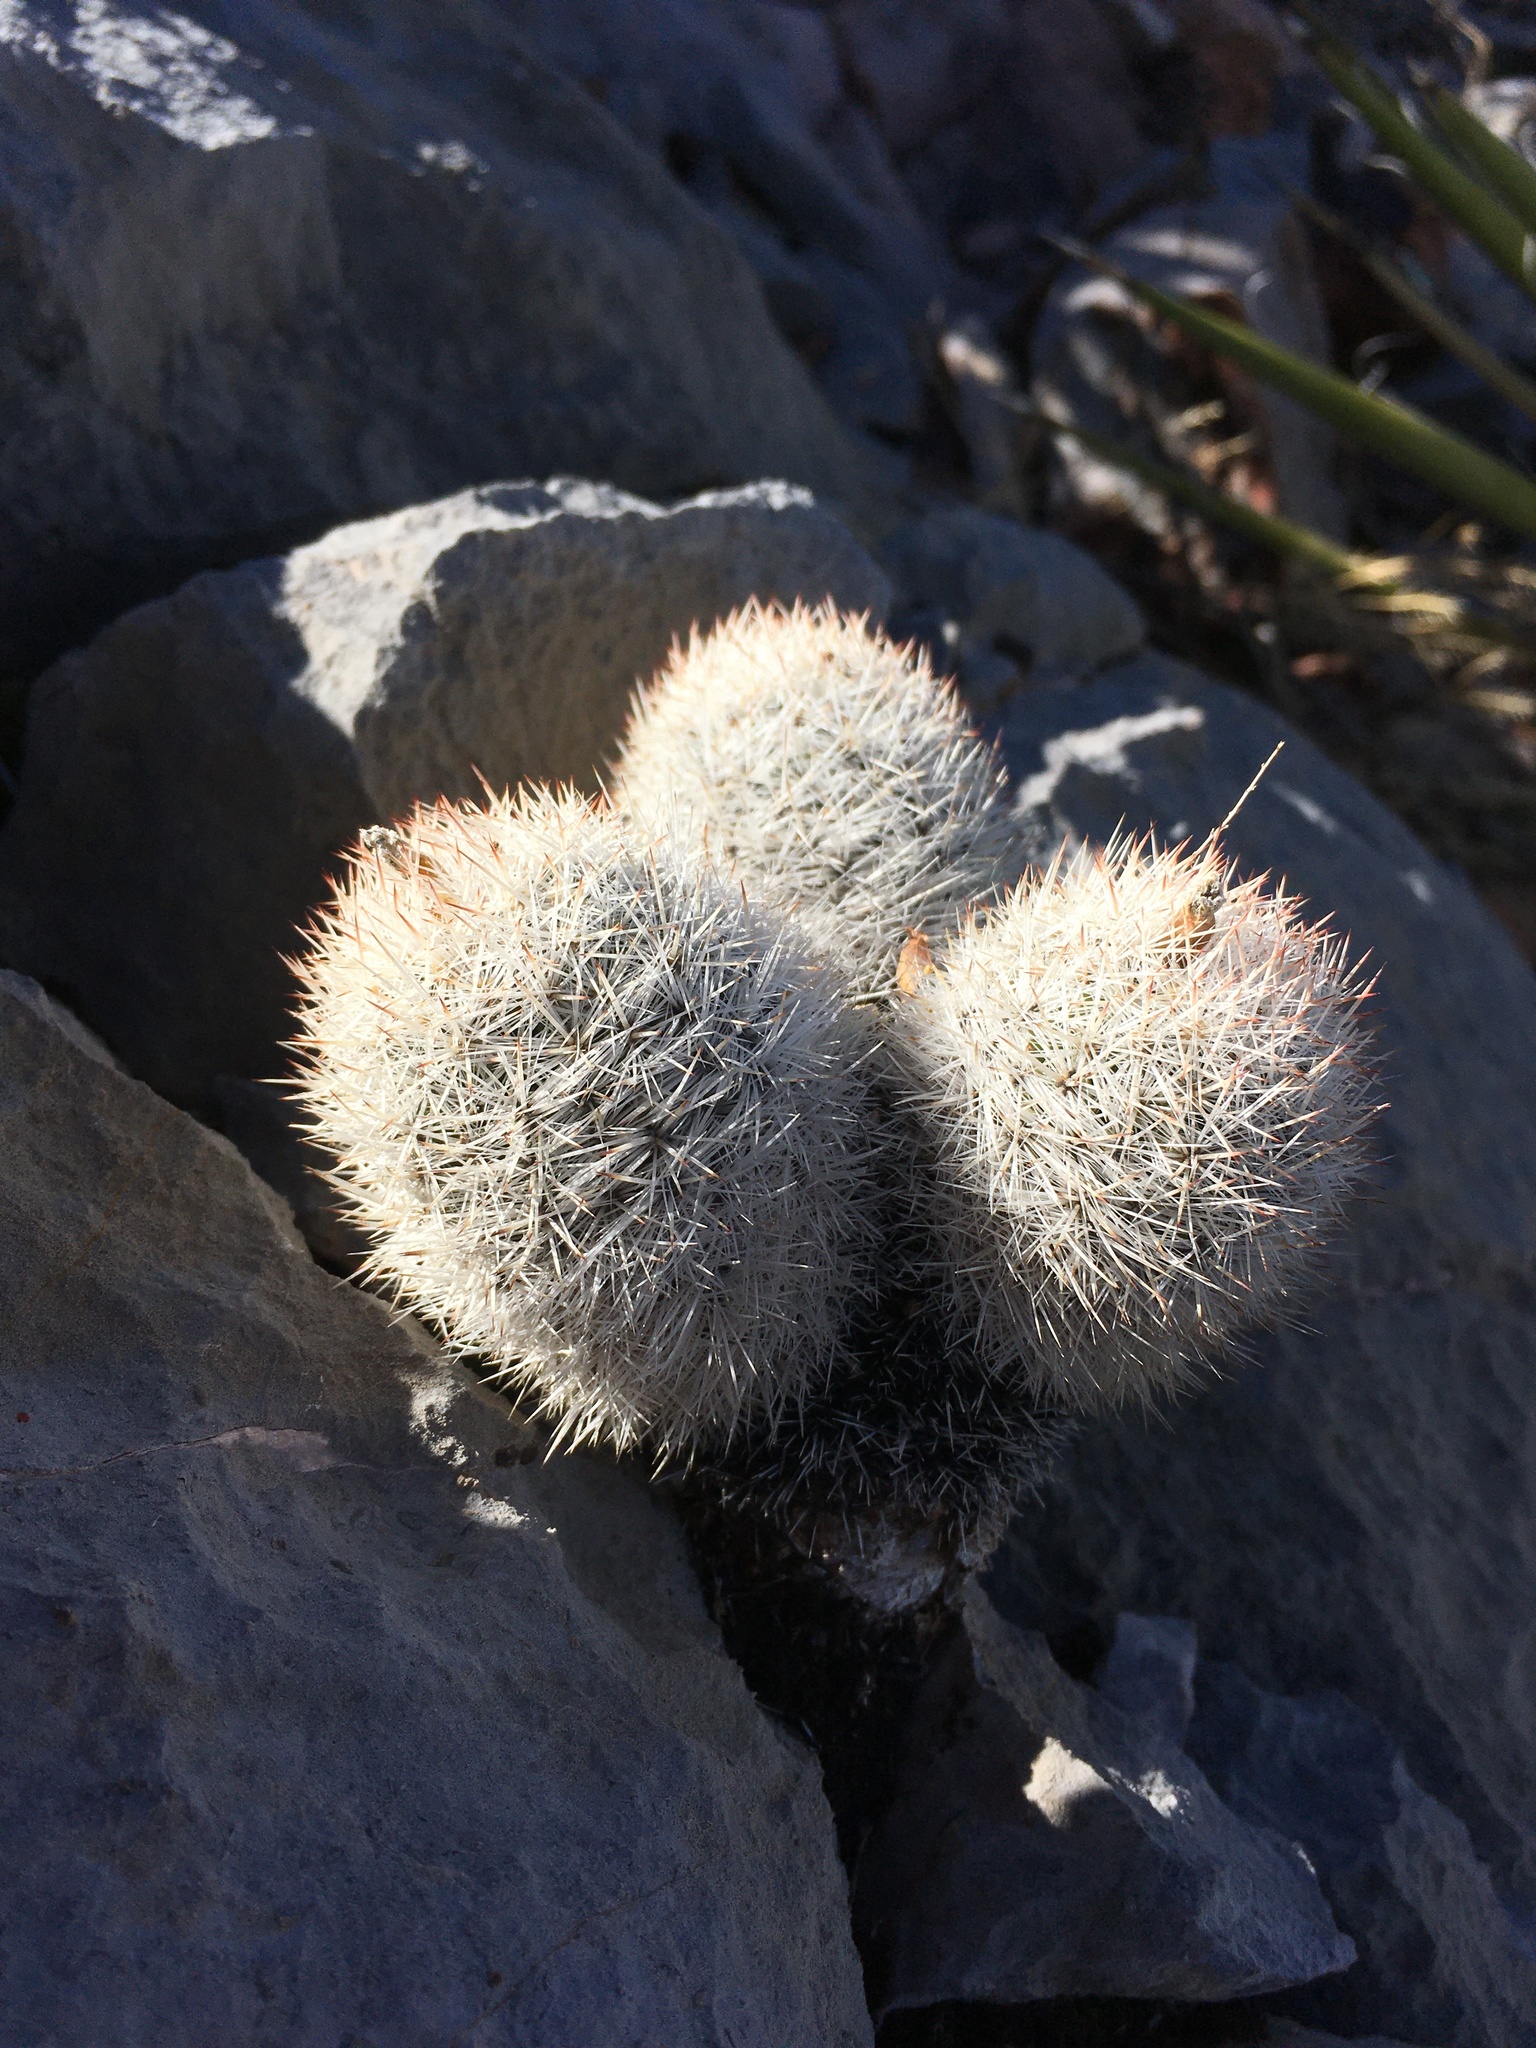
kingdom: Plantae
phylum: Tracheophyta
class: Magnoliopsida
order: Caryophyllales
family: Cactaceae
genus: Pelecyphora
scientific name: Pelecyphora sneedii
